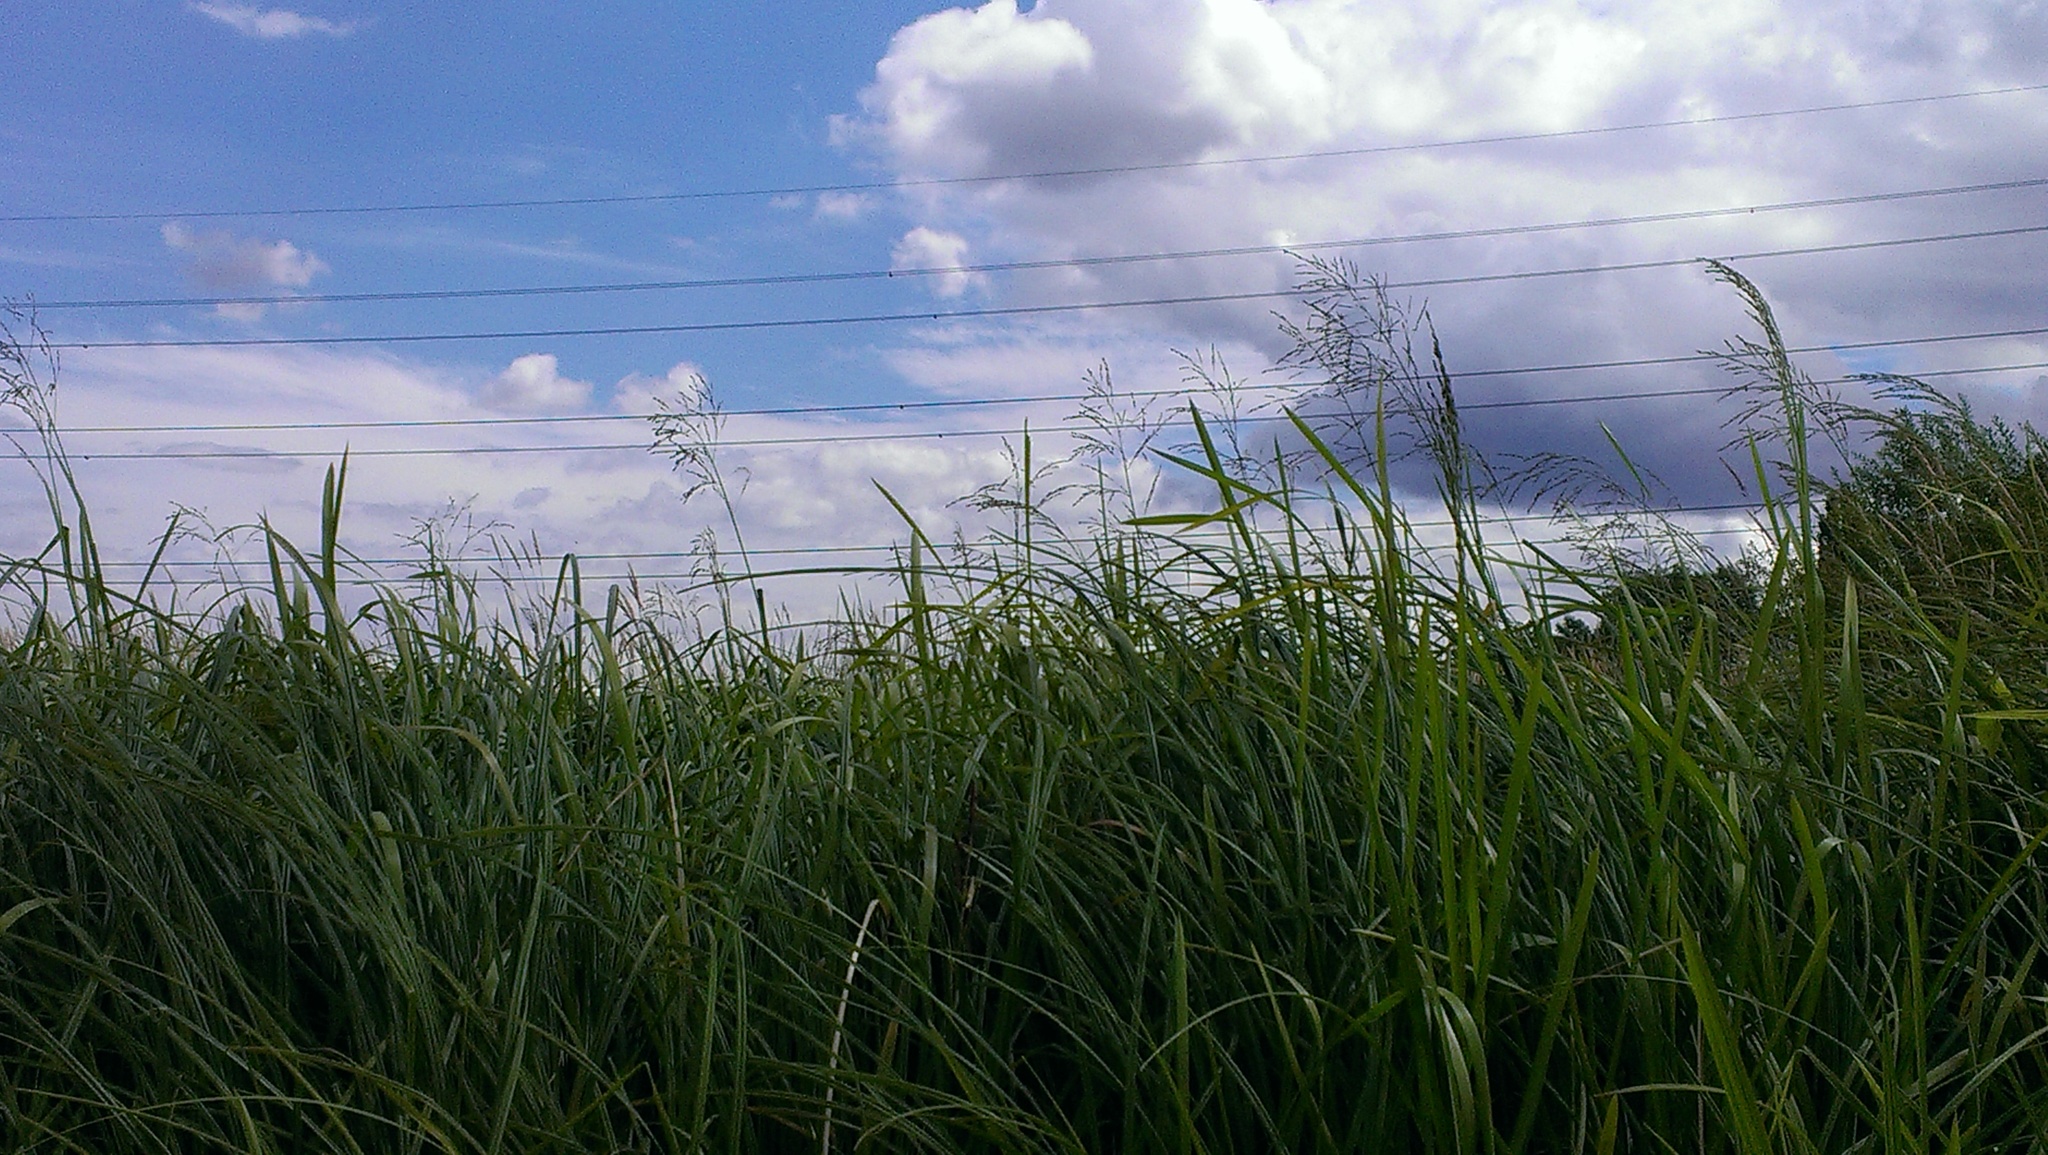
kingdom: Plantae
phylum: Tracheophyta
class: Liliopsida
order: Poales
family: Poaceae
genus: Glyceria
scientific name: Glyceria maxima
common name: Reed mannagrass
